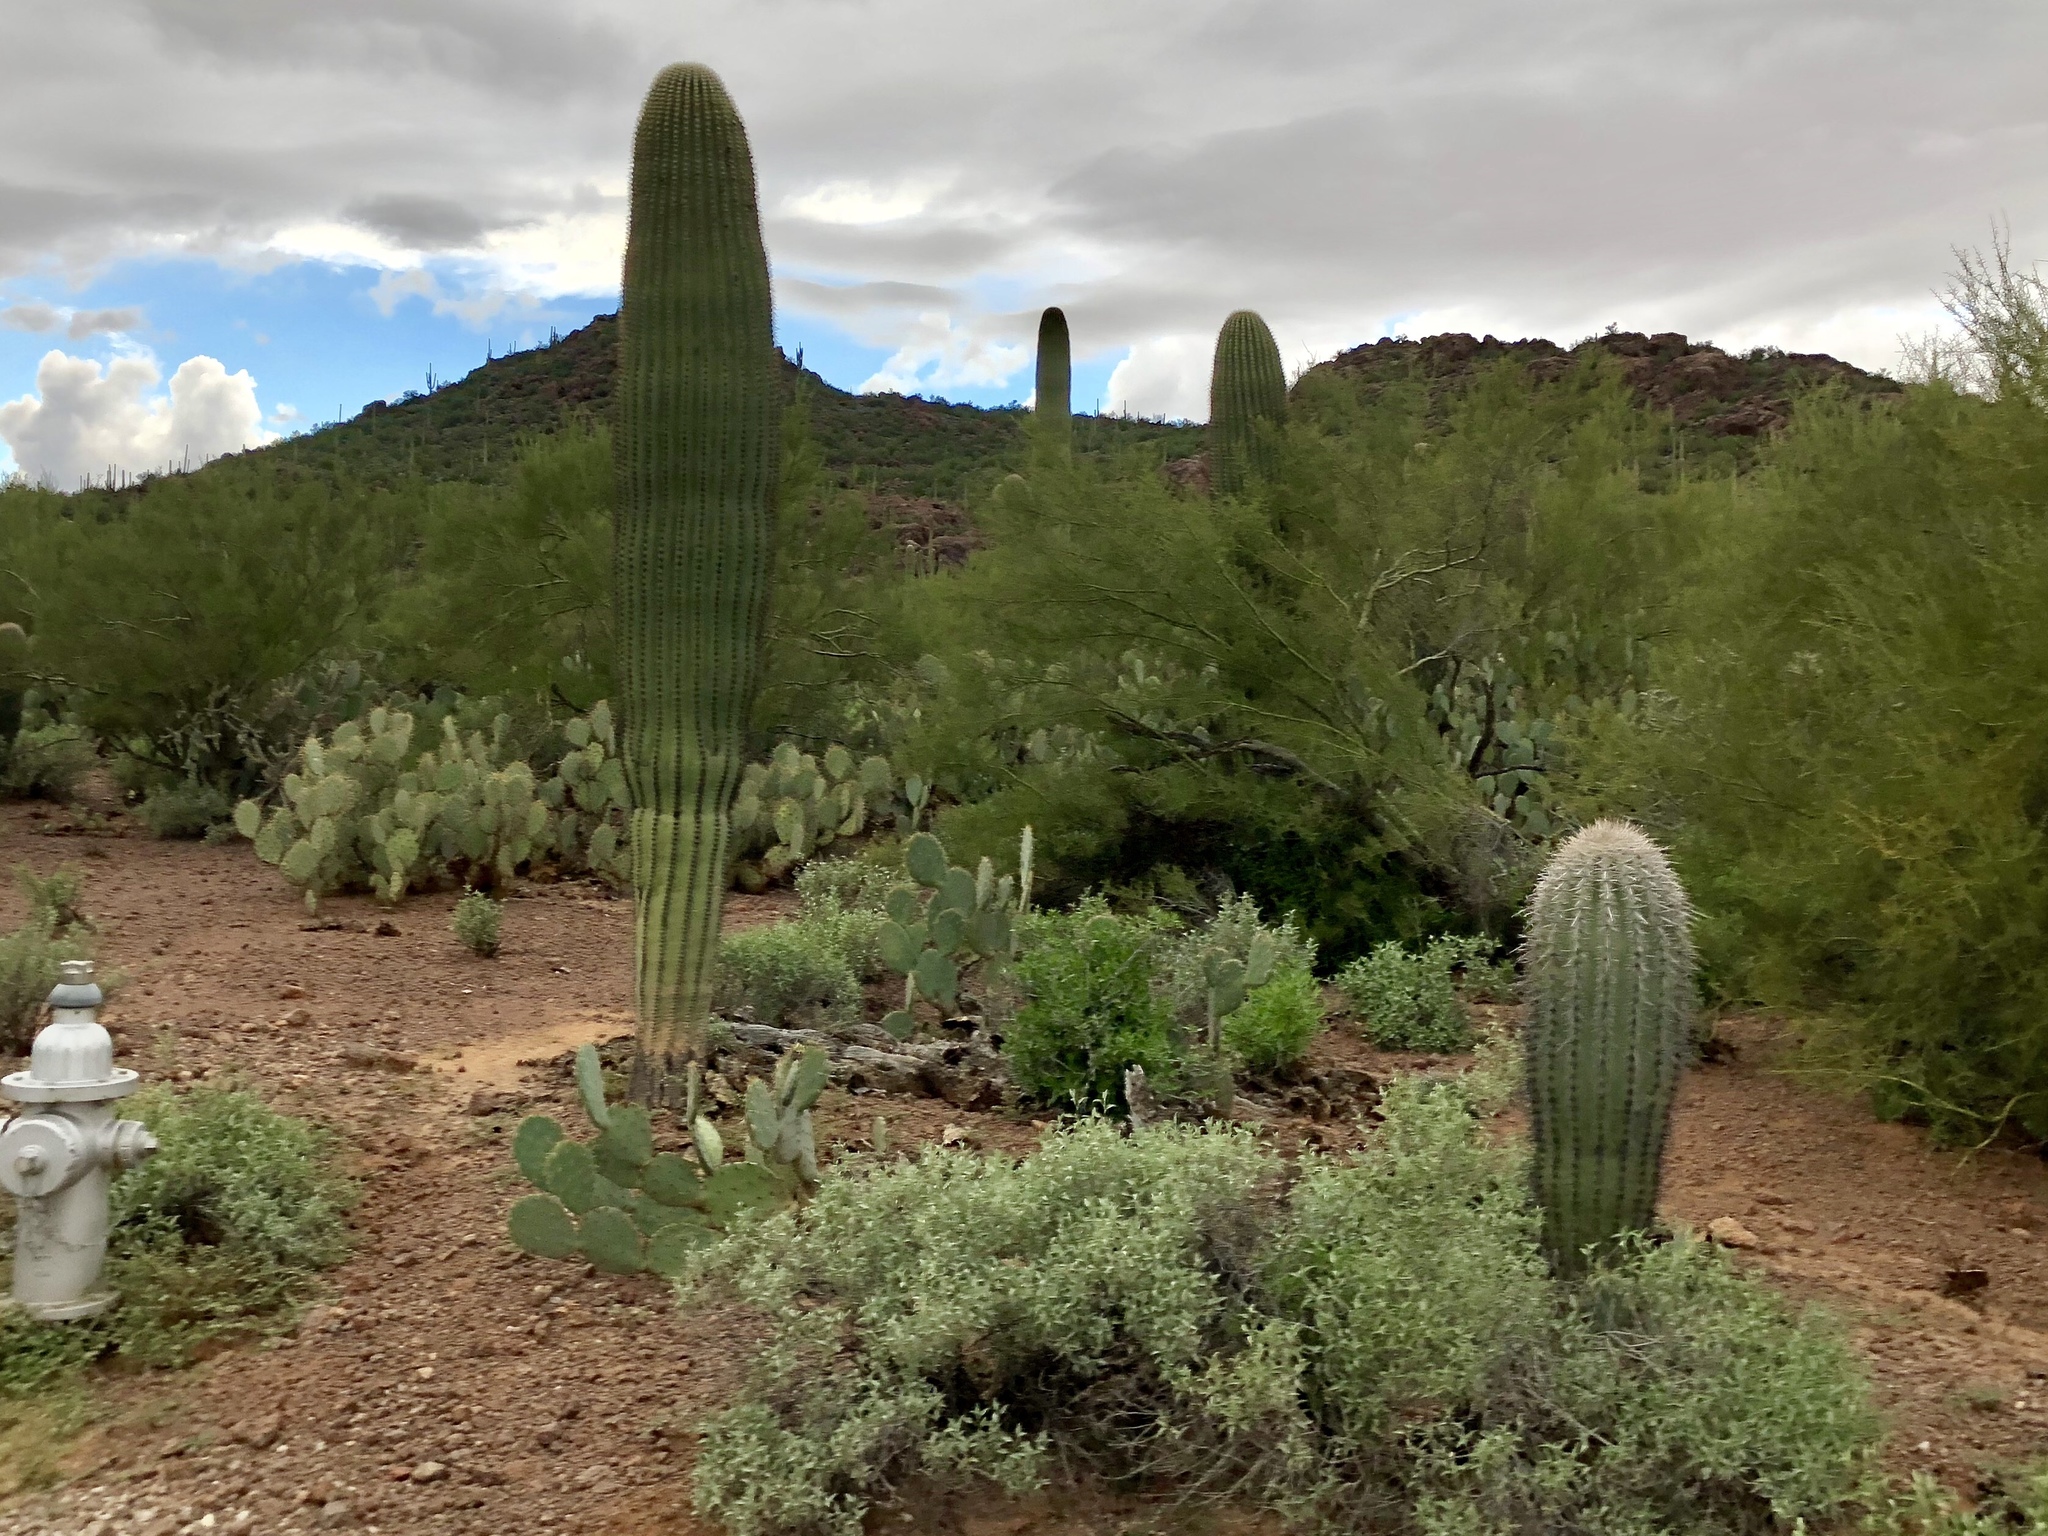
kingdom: Plantae
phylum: Tracheophyta
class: Magnoliopsida
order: Caryophyllales
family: Cactaceae
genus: Carnegiea
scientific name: Carnegiea gigantea
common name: Saguaro
